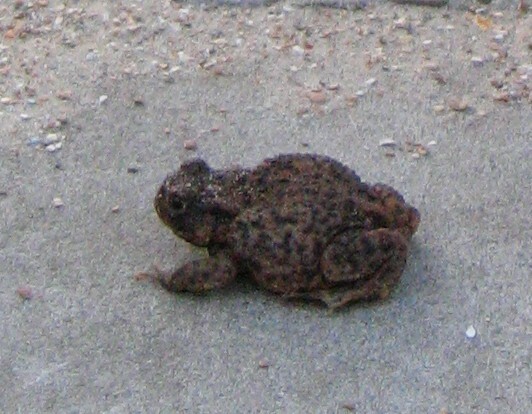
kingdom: Animalia
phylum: Chordata
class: Amphibia
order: Anura
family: Bufonidae
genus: Bufo
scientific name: Bufo bufo
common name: Common toad
